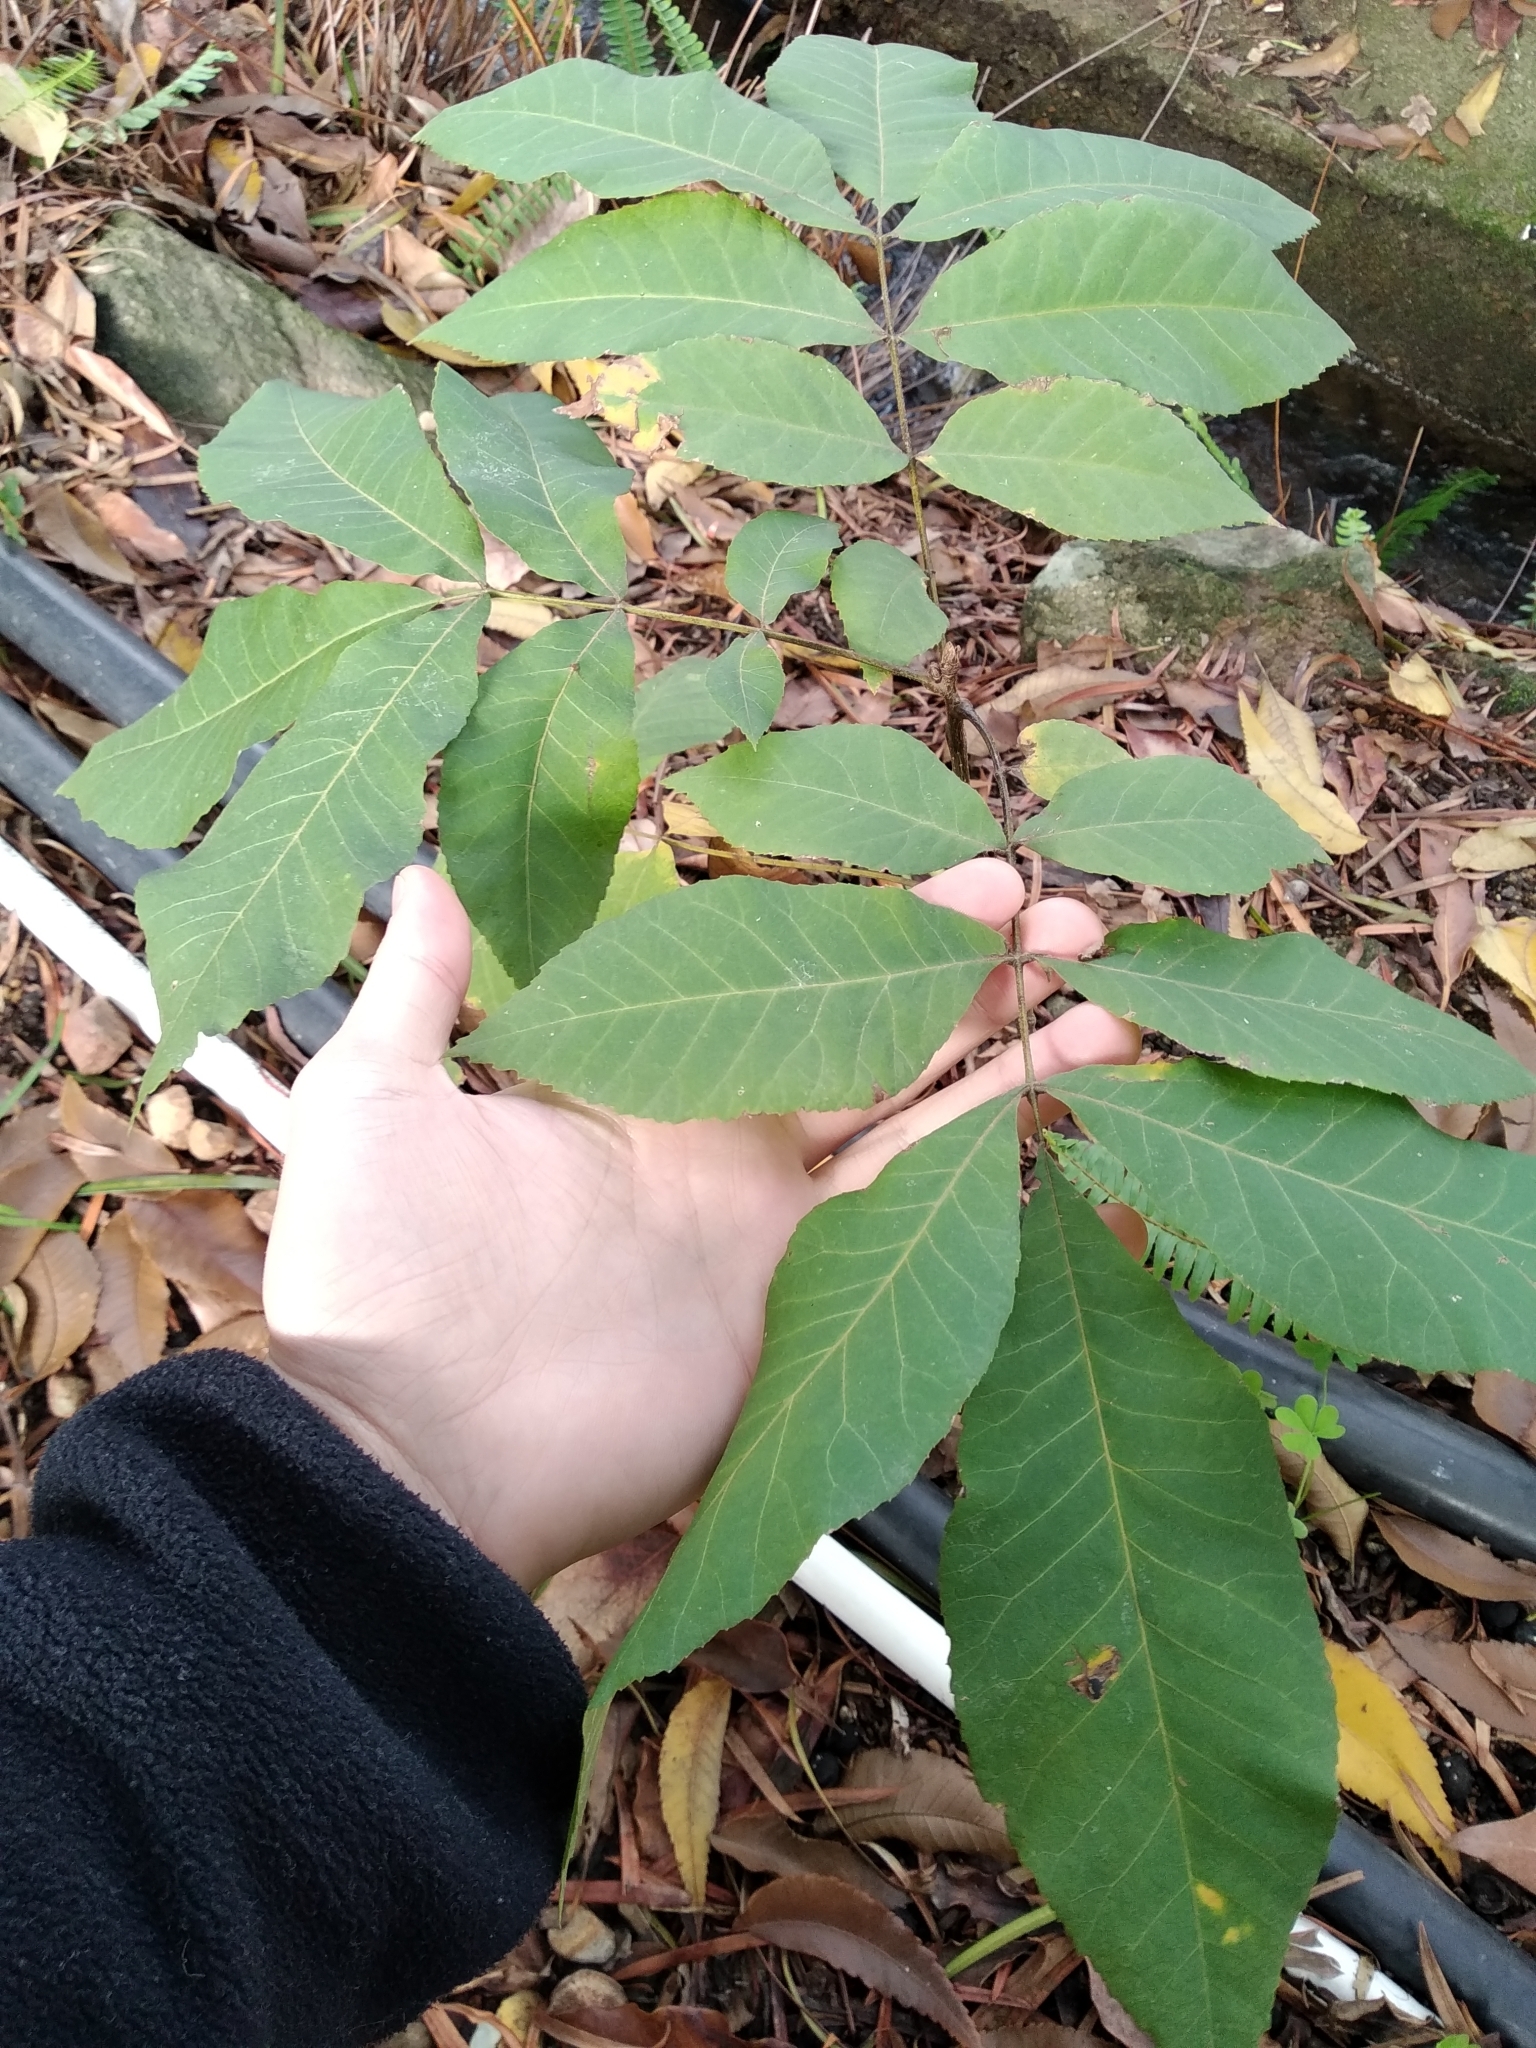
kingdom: Plantae
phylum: Tracheophyta
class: Magnoliopsida
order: Fagales
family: Juglandaceae
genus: Carya
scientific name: Carya illinoinensis
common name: Pecan
